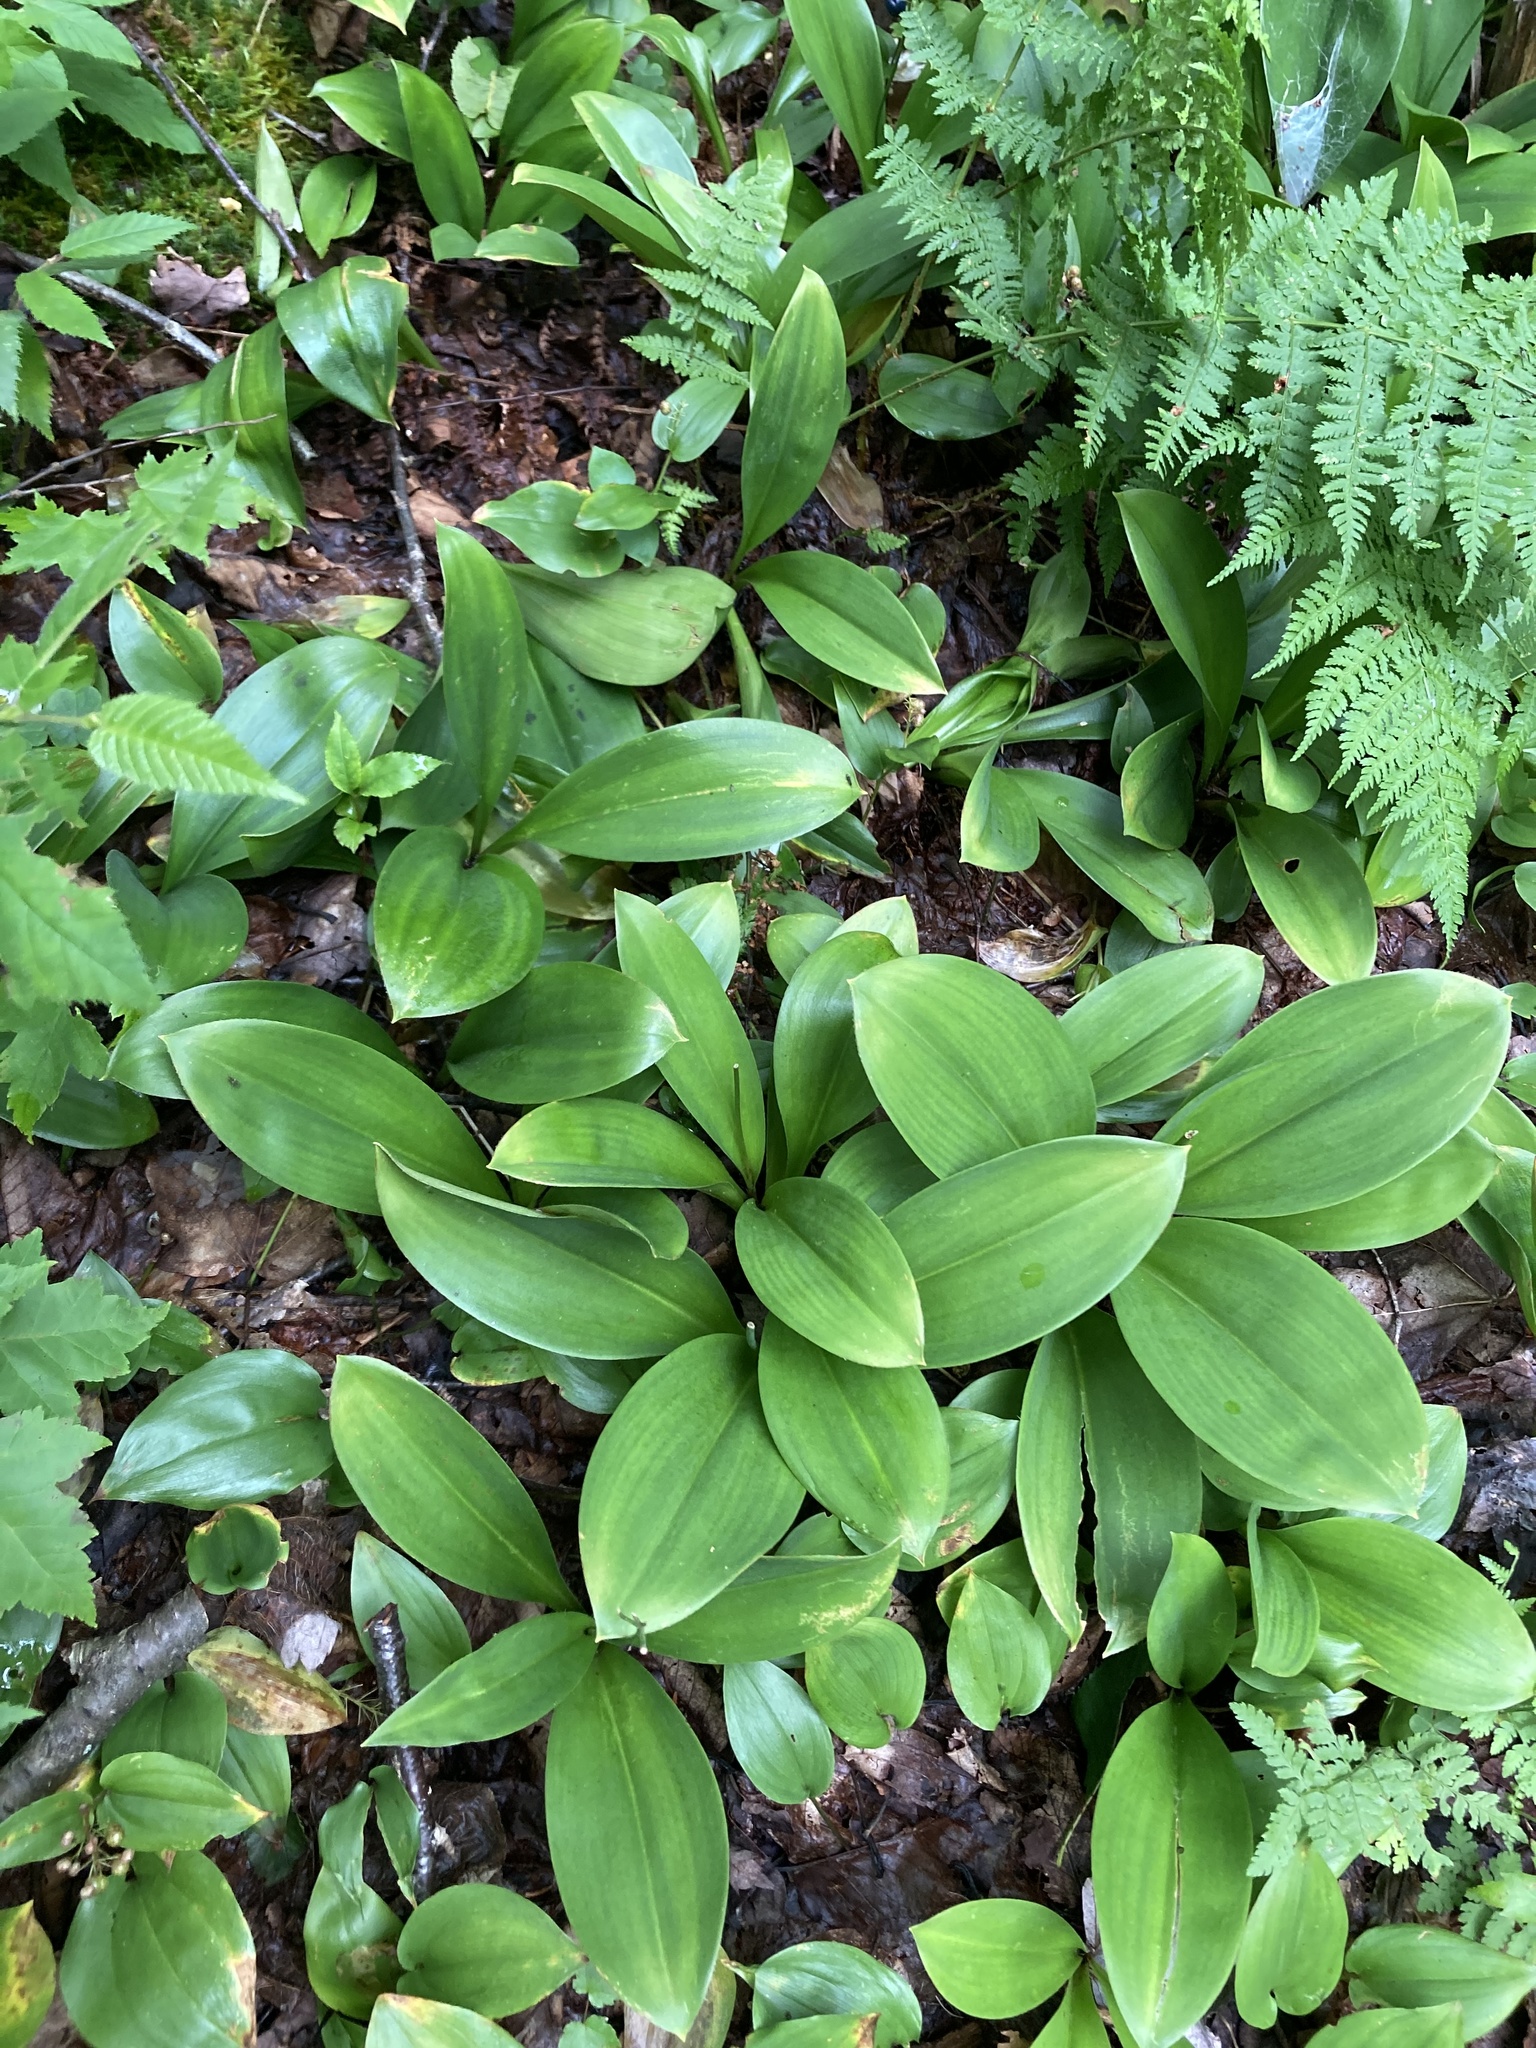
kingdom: Plantae
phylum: Tracheophyta
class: Liliopsida
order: Liliales
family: Liliaceae
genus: Clintonia
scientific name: Clintonia borealis
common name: Yellow clintonia
